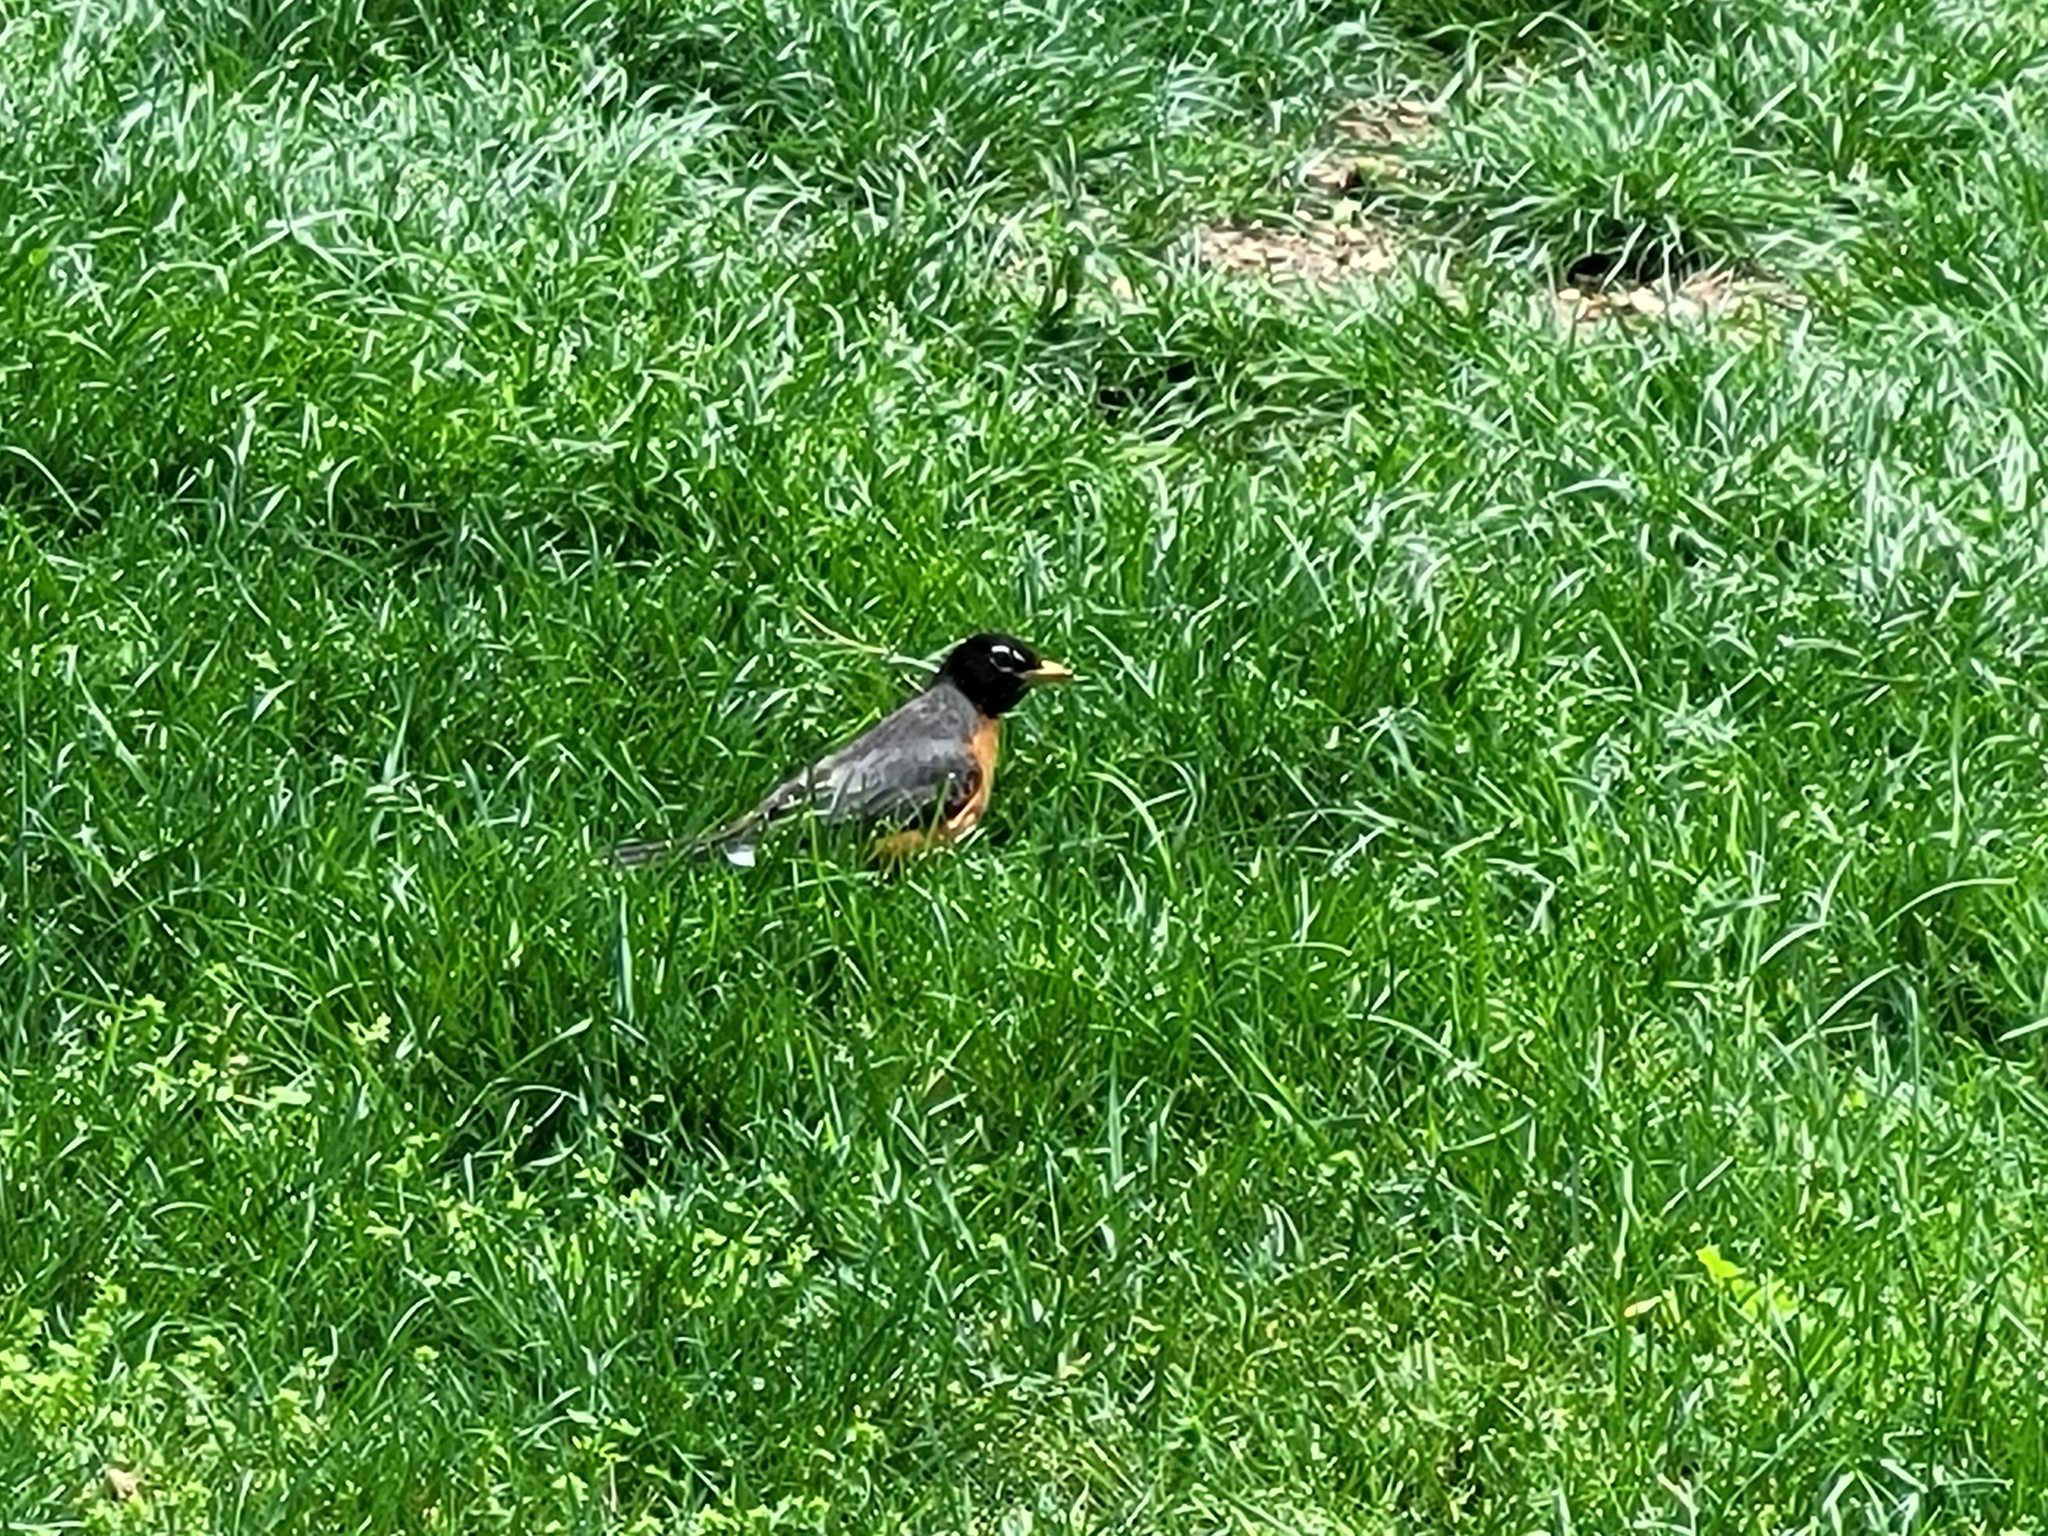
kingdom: Animalia
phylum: Chordata
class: Aves
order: Passeriformes
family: Turdidae
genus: Turdus
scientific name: Turdus migratorius
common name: American robin
